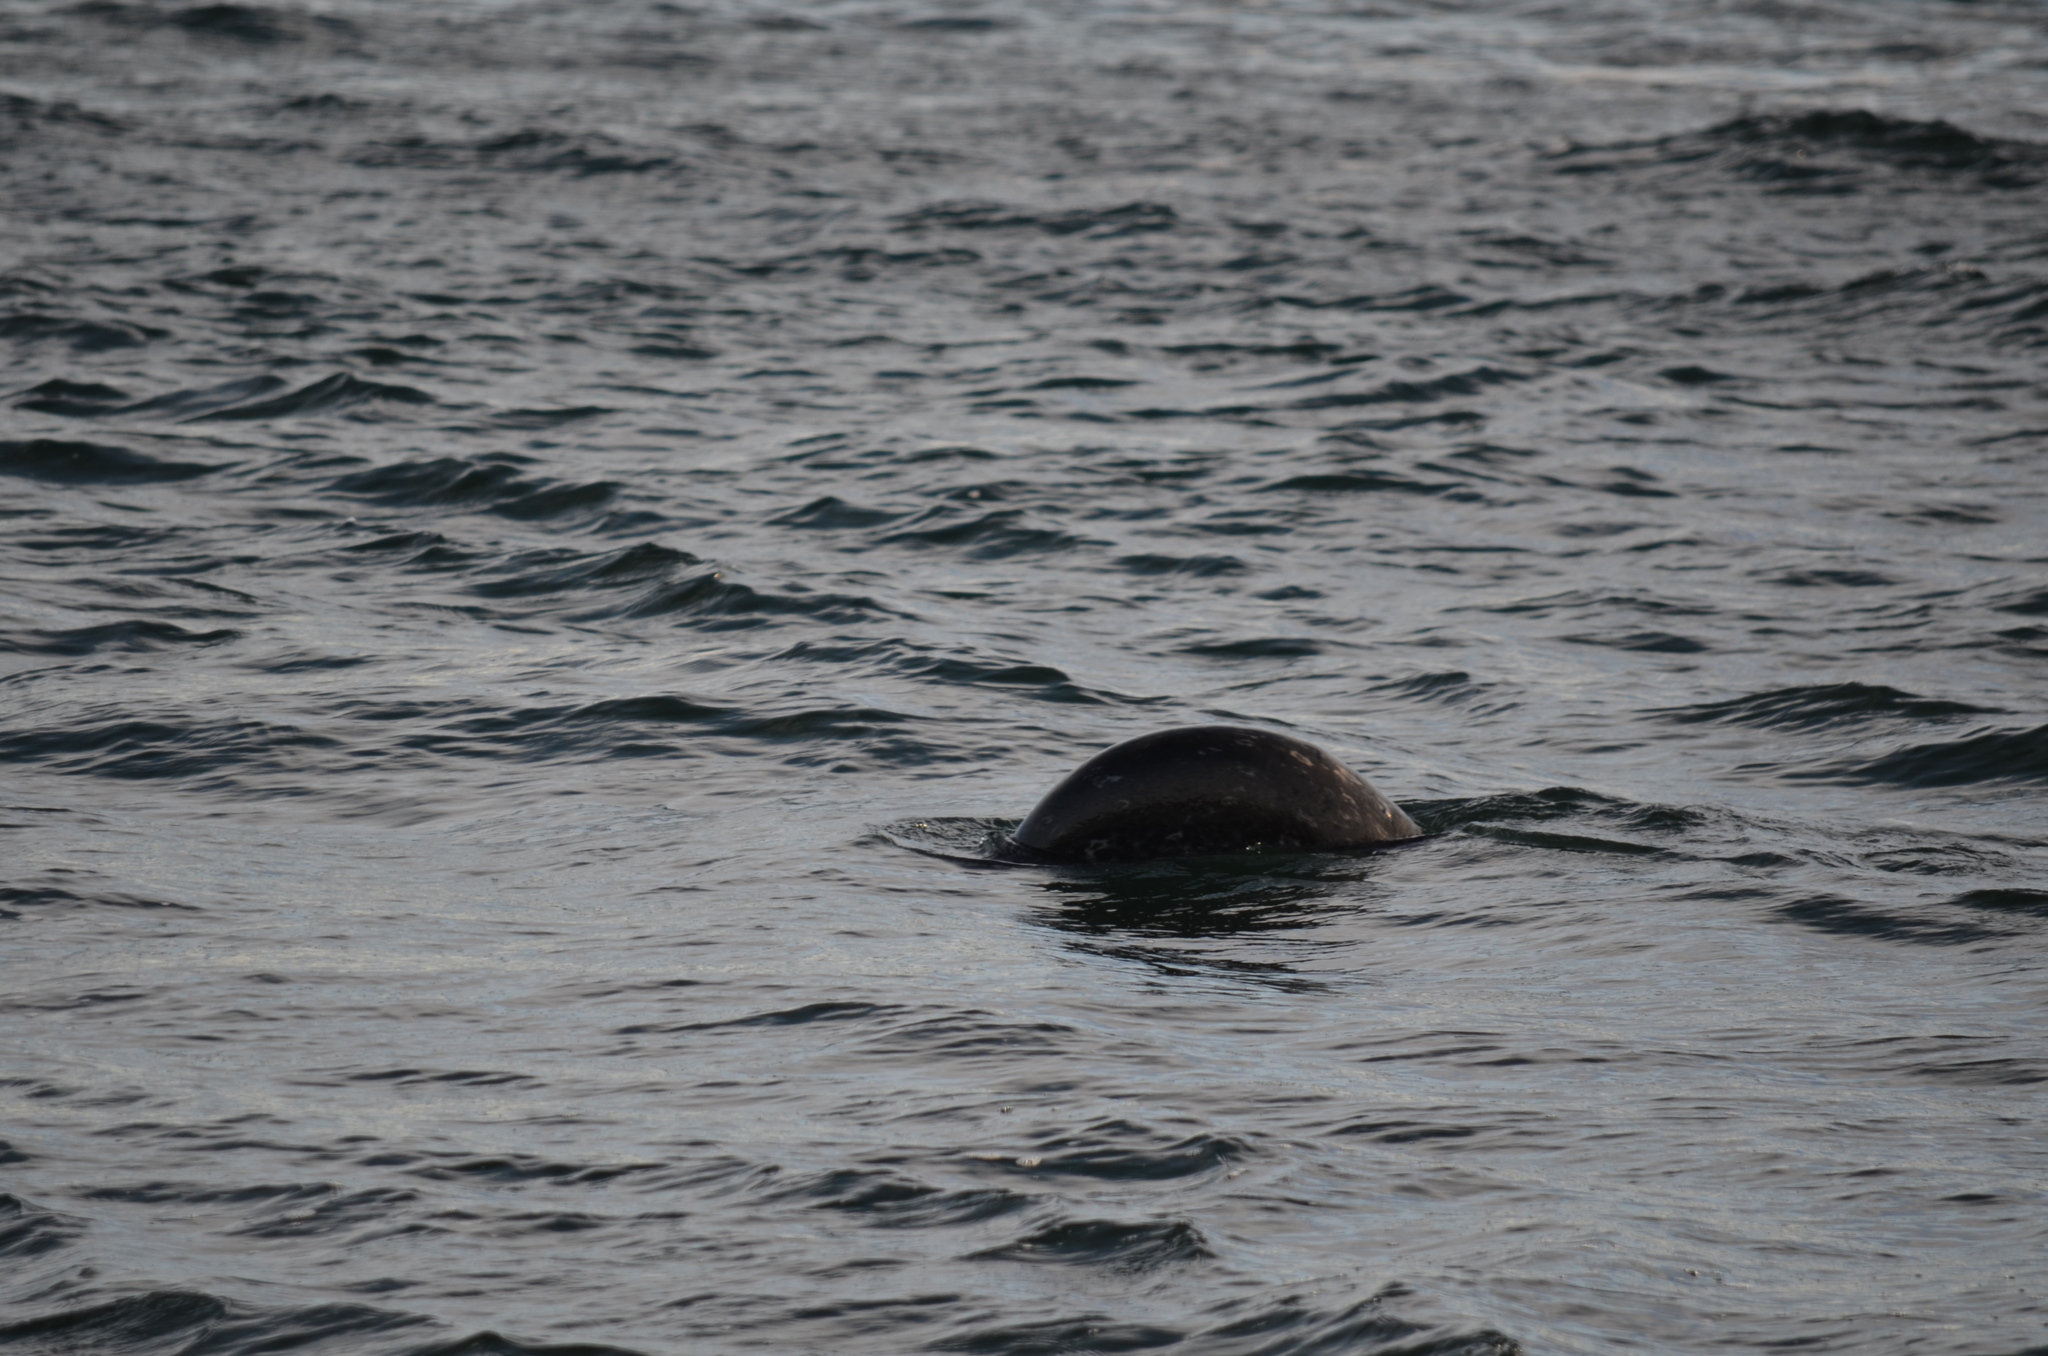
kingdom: Animalia
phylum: Chordata
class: Mammalia
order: Carnivora
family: Phocidae
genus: Phoca
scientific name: Phoca vitulina
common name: Harbor seal
